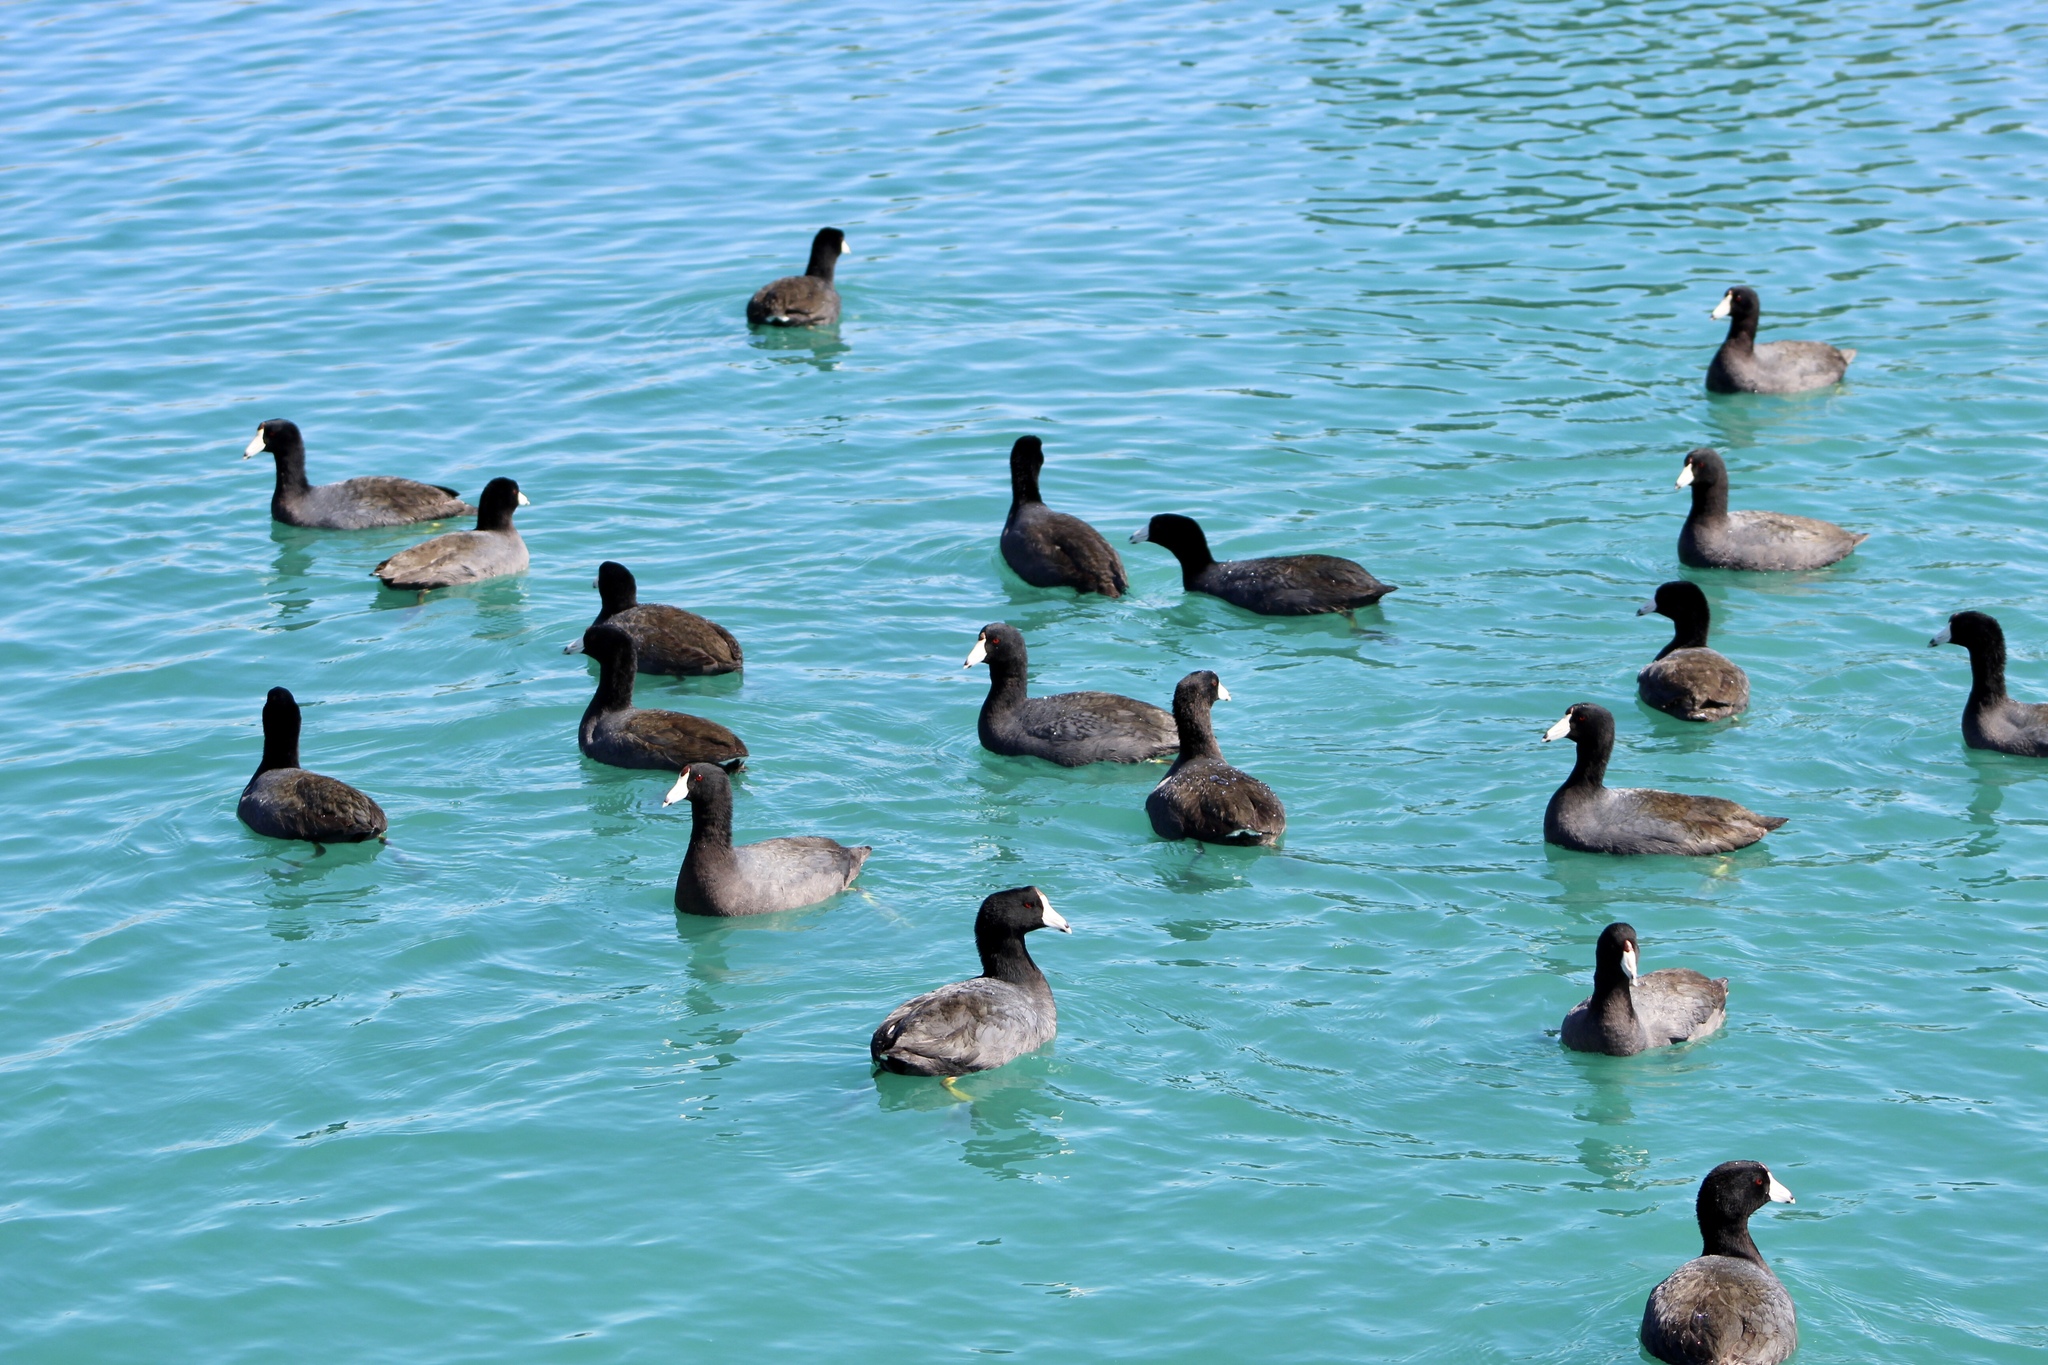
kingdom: Animalia
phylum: Chordata
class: Aves
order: Gruiformes
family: Rallidae
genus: Fulica
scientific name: Fulica americana
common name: American coot
